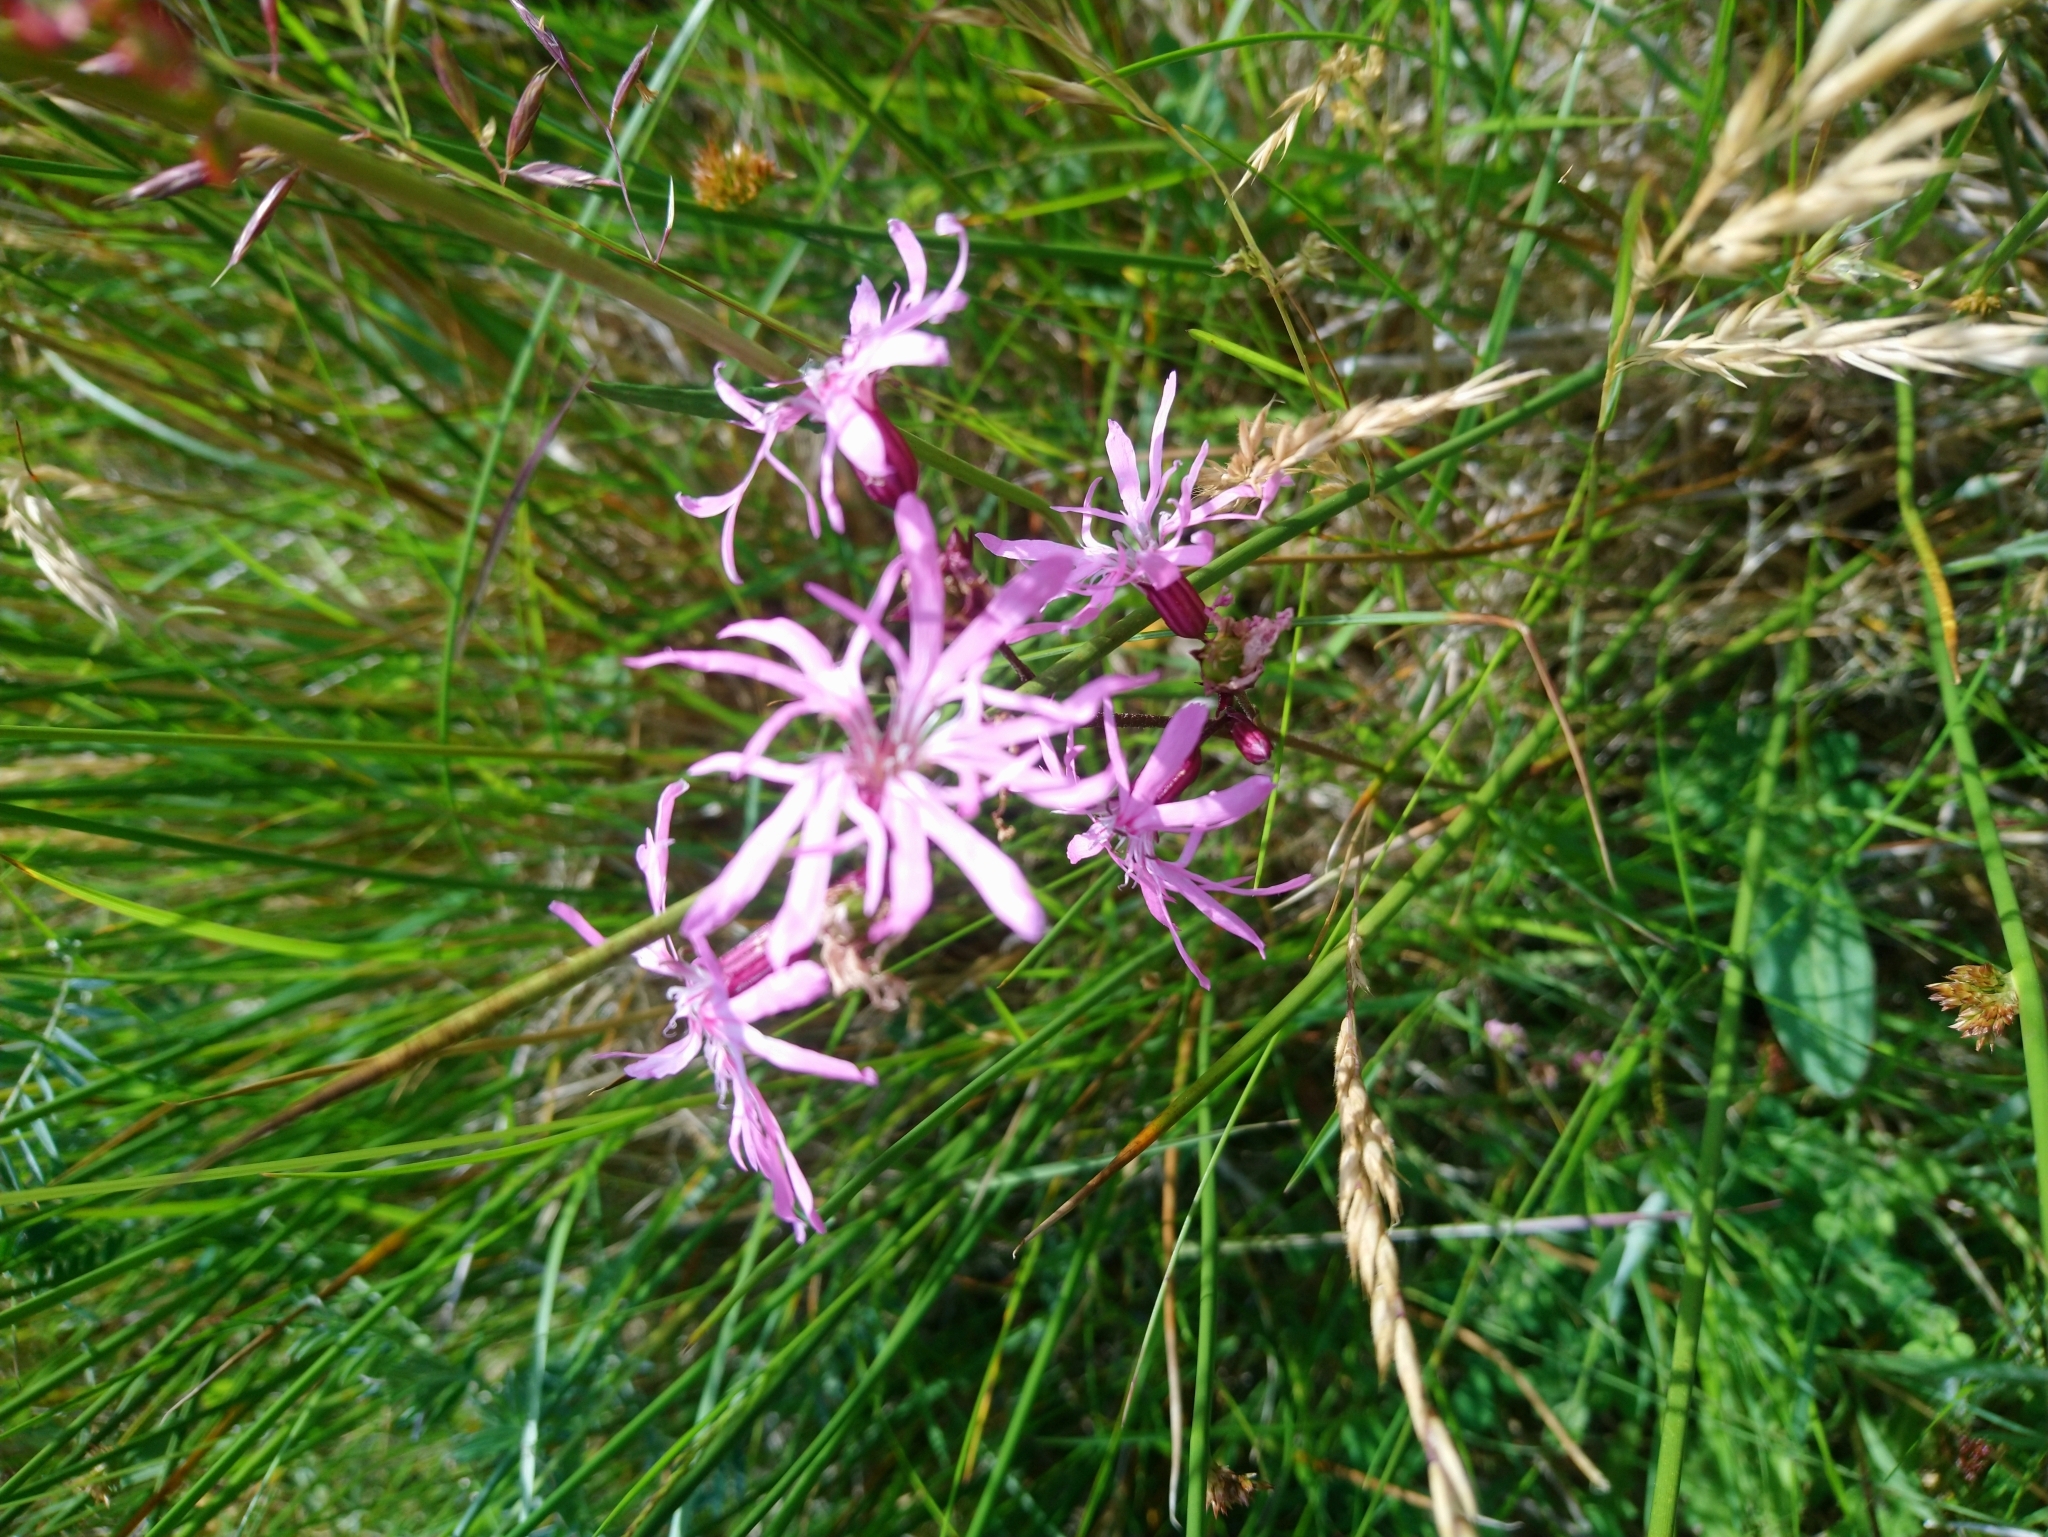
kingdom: Plantae
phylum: Tracheophyta
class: Magnoliopsida
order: Caryophyllales
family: Caryophyllaceae
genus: Silene
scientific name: Silene flos-cuculi
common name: Ragged-robin
